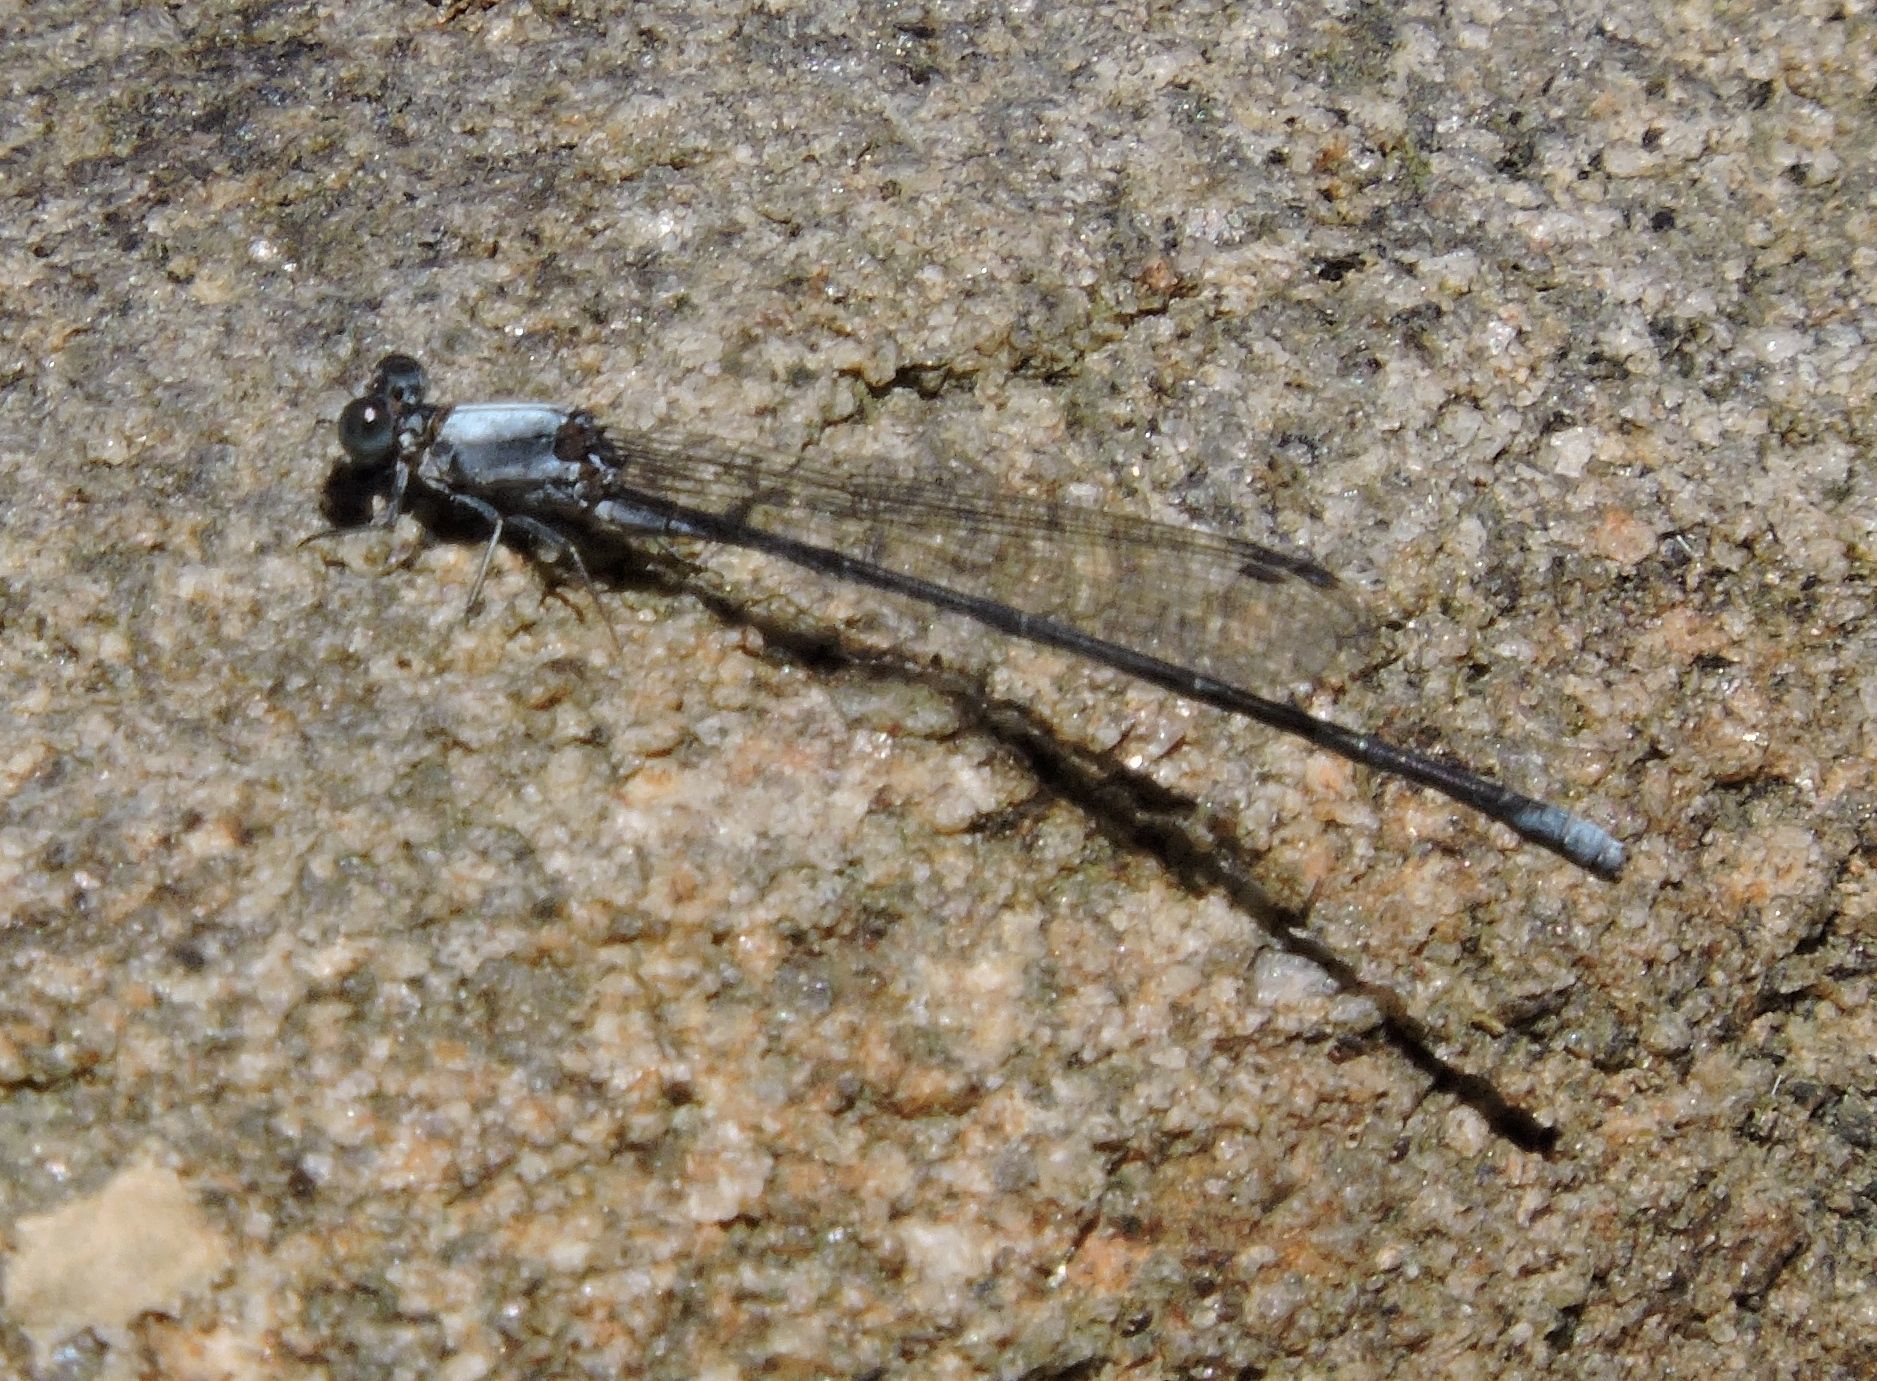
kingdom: Animalia
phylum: Arthropoda
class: Insecta
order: Odonata
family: Coenagrionidae
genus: Argia
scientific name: Argia moesta
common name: Powdered dancer
